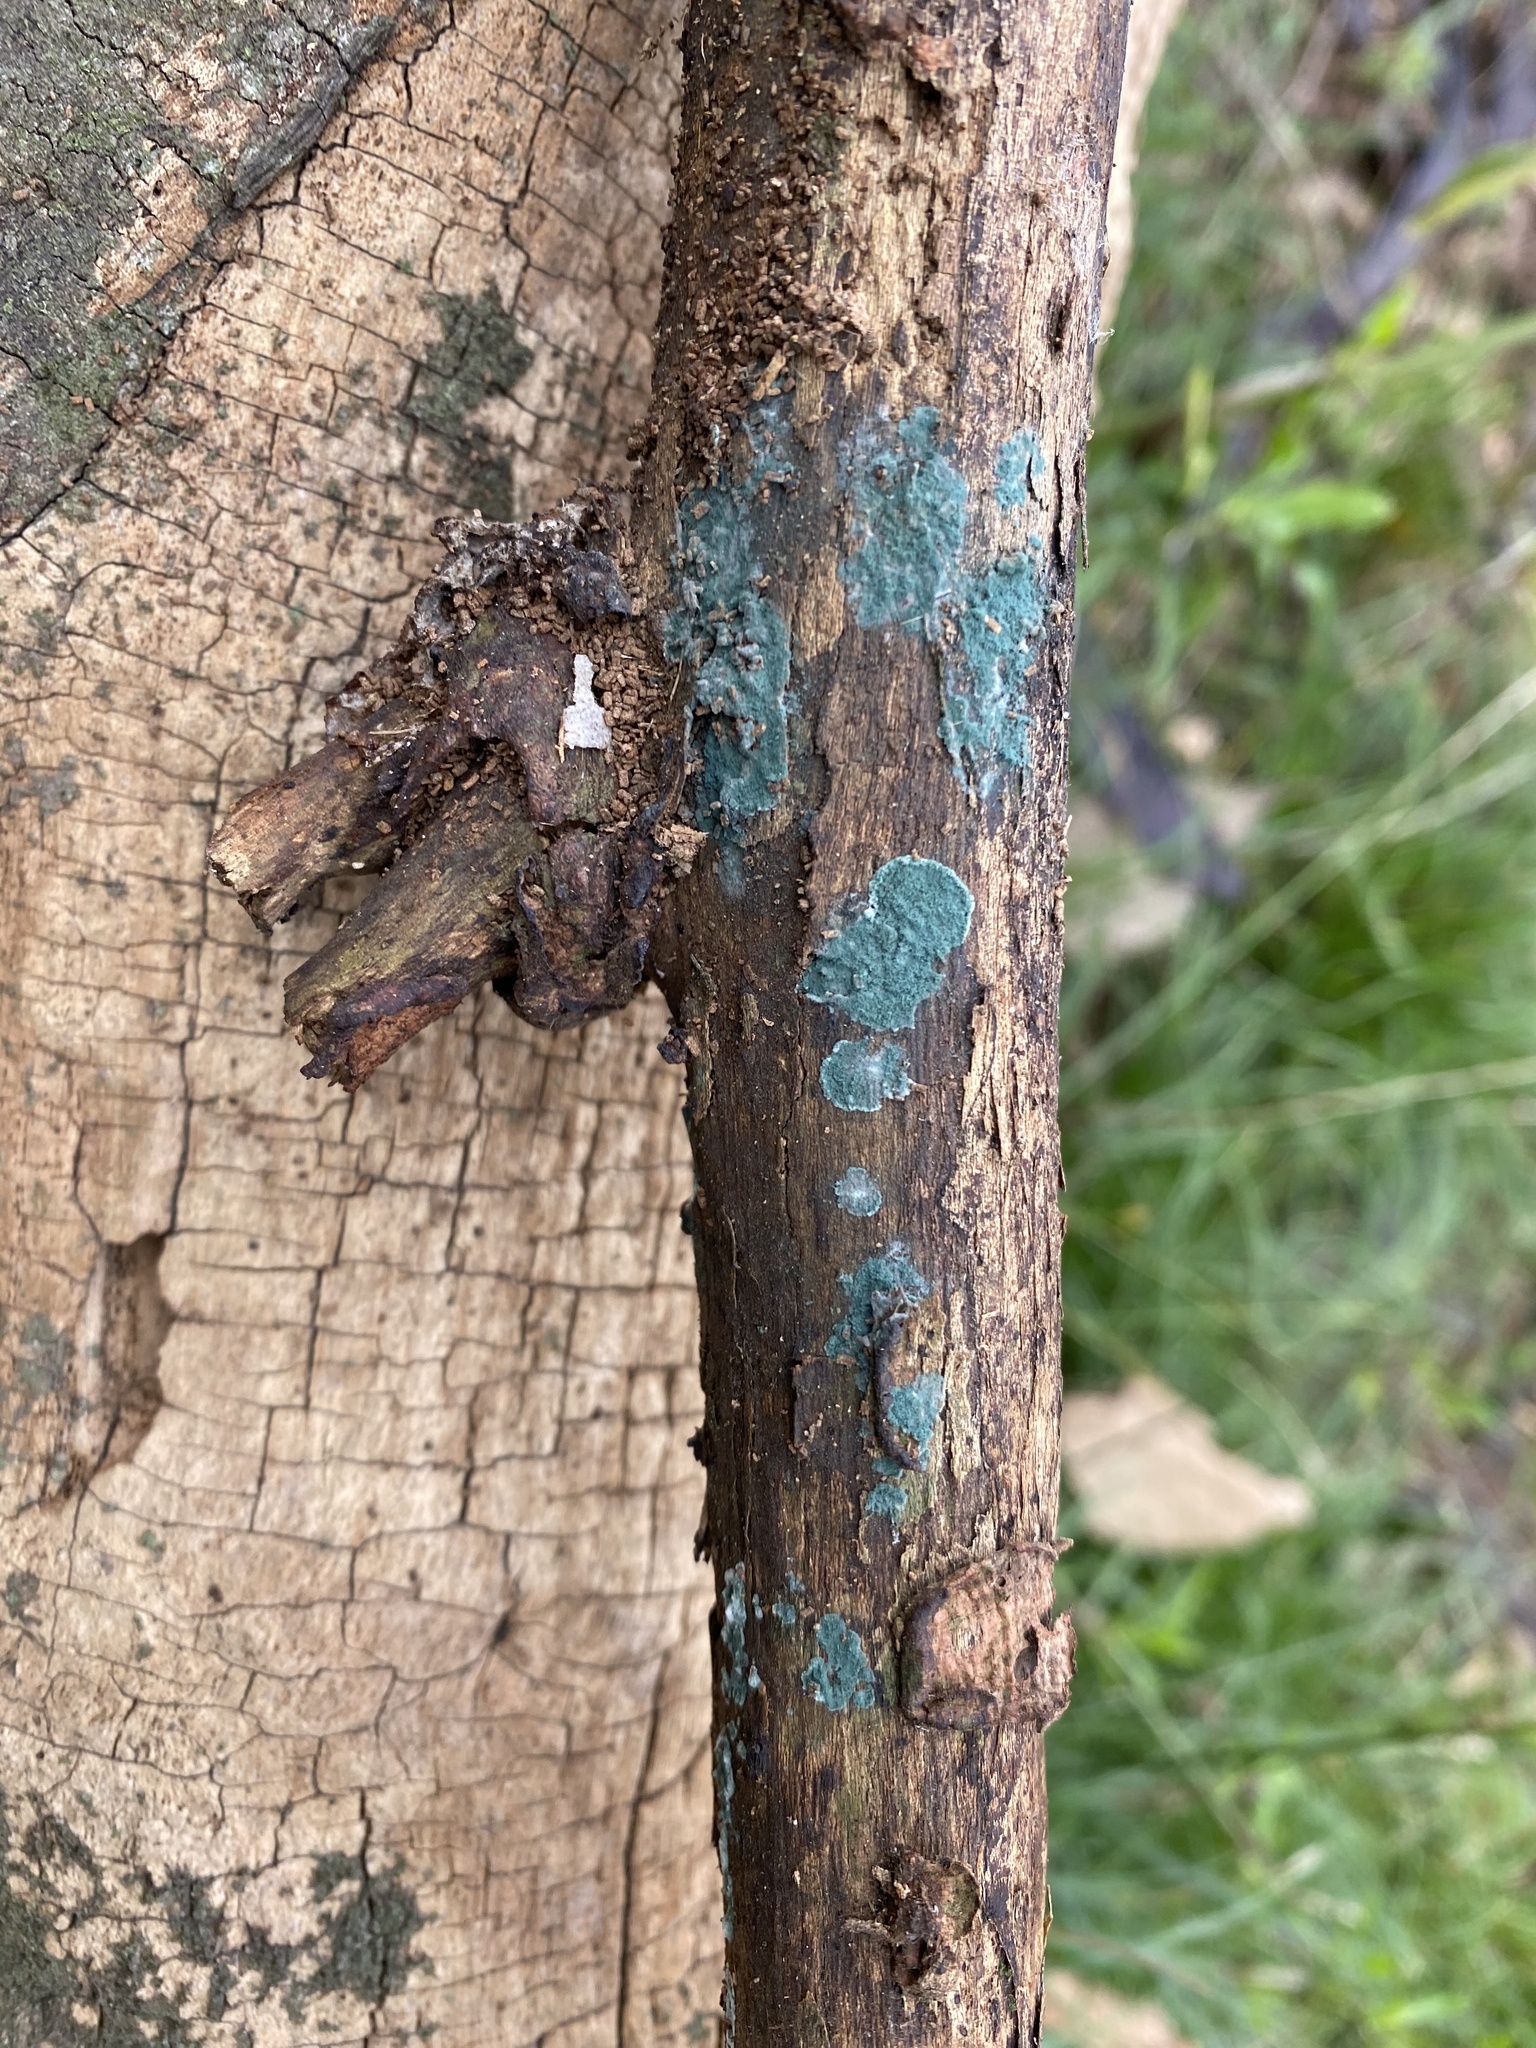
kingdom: Fungi
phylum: Ascomycota
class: Sordariomycetes
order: Hypocreales
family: Hypocreaceae
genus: Trichoderma
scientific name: Trichoderma viride
